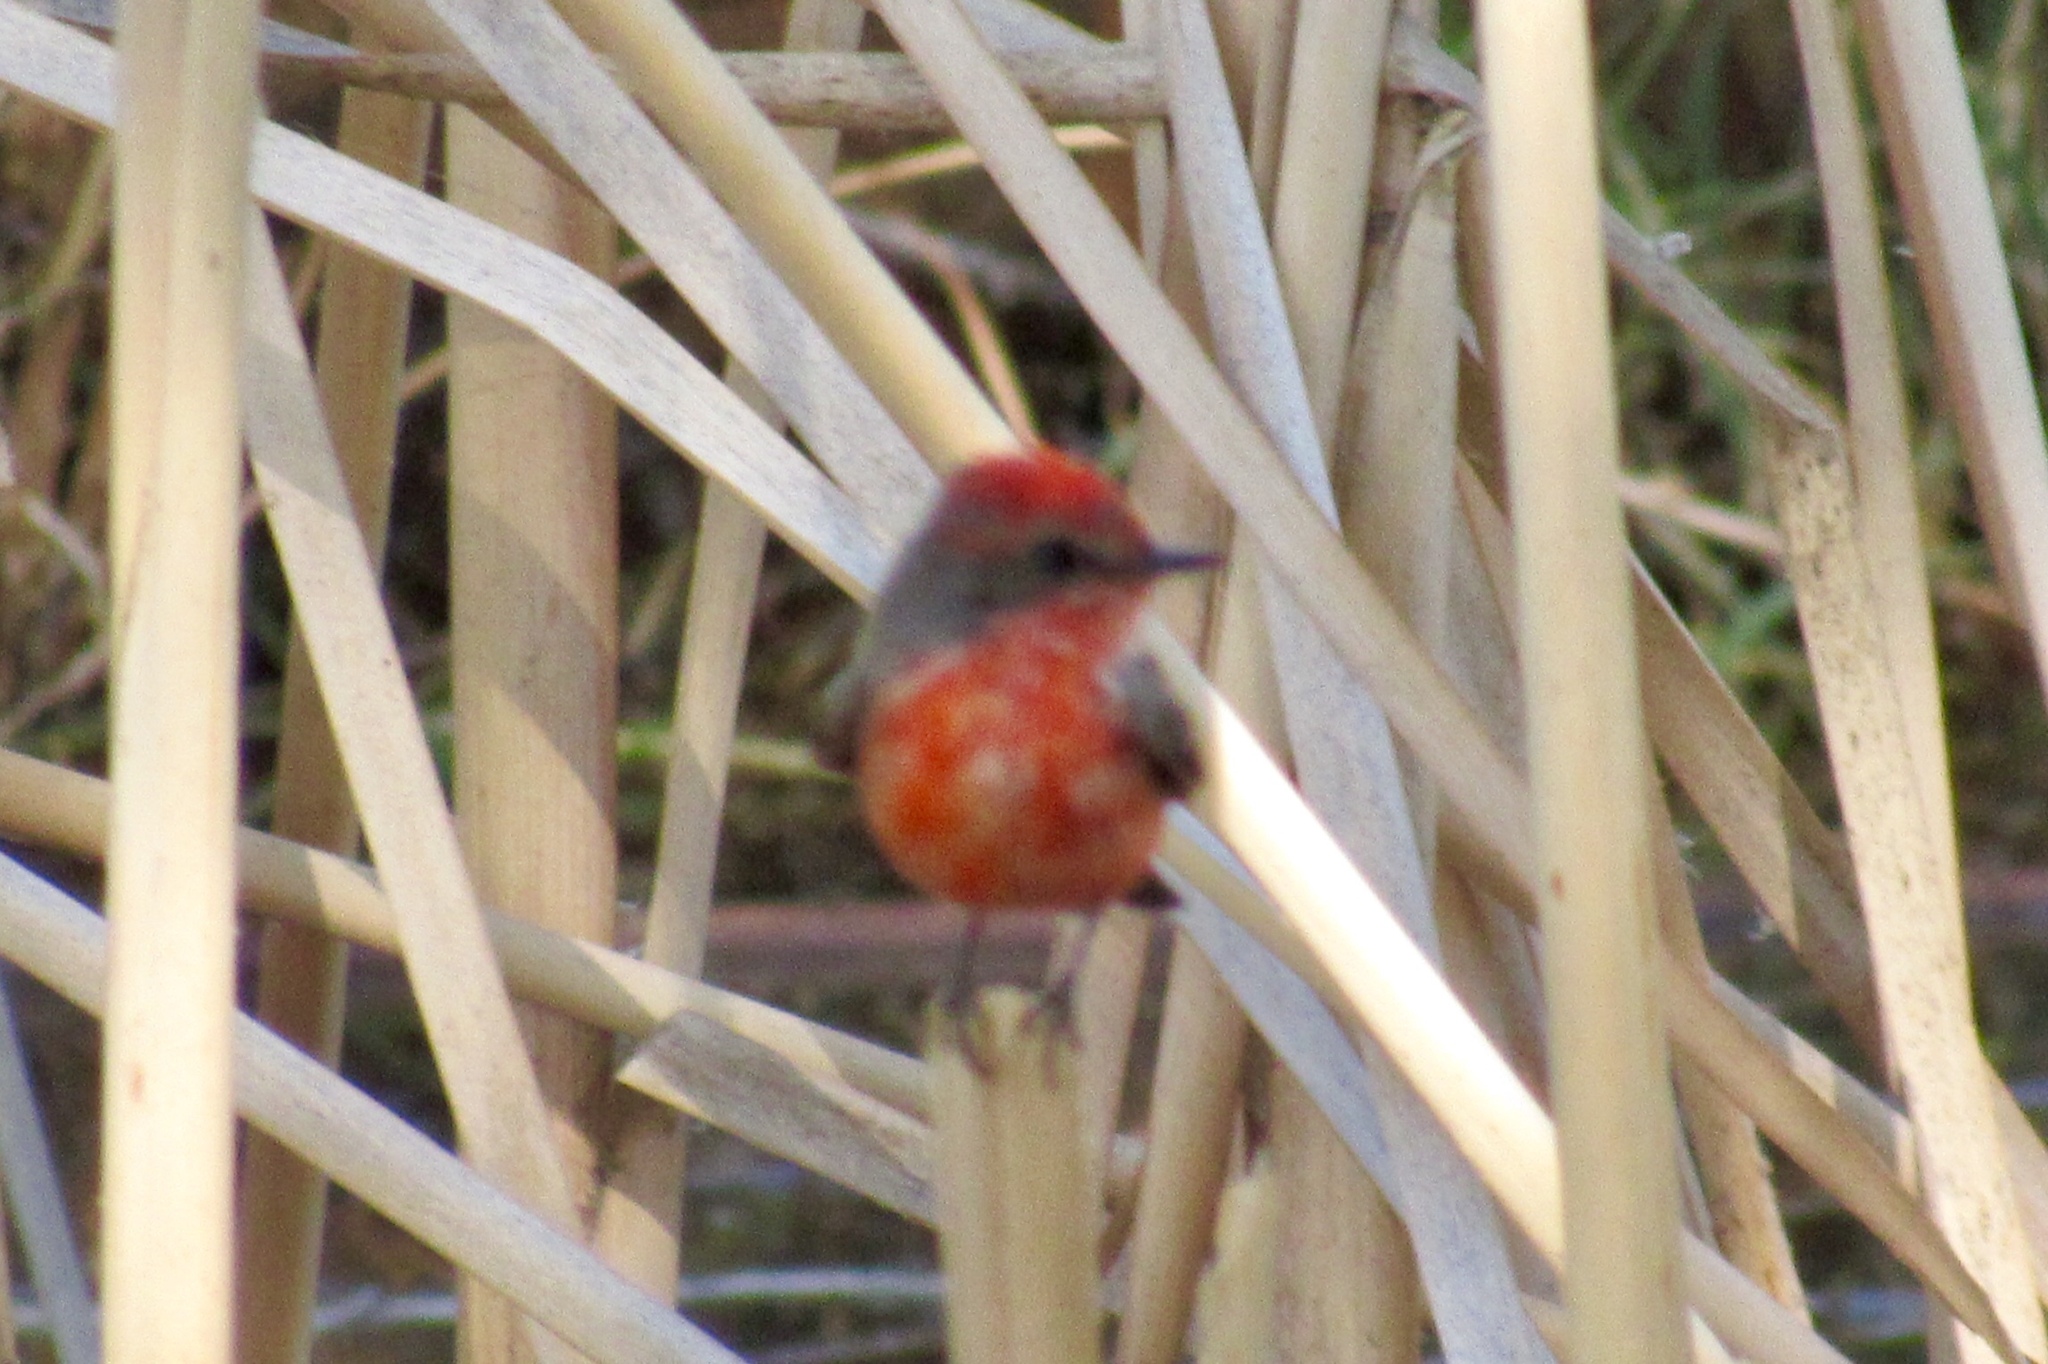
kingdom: Animalia
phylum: Chordata
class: Aves
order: Passeriformes
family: Tyrannidae
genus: Pyrocephalus
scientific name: Pyrocephalus rubinus
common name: Vermilion flycatcher
